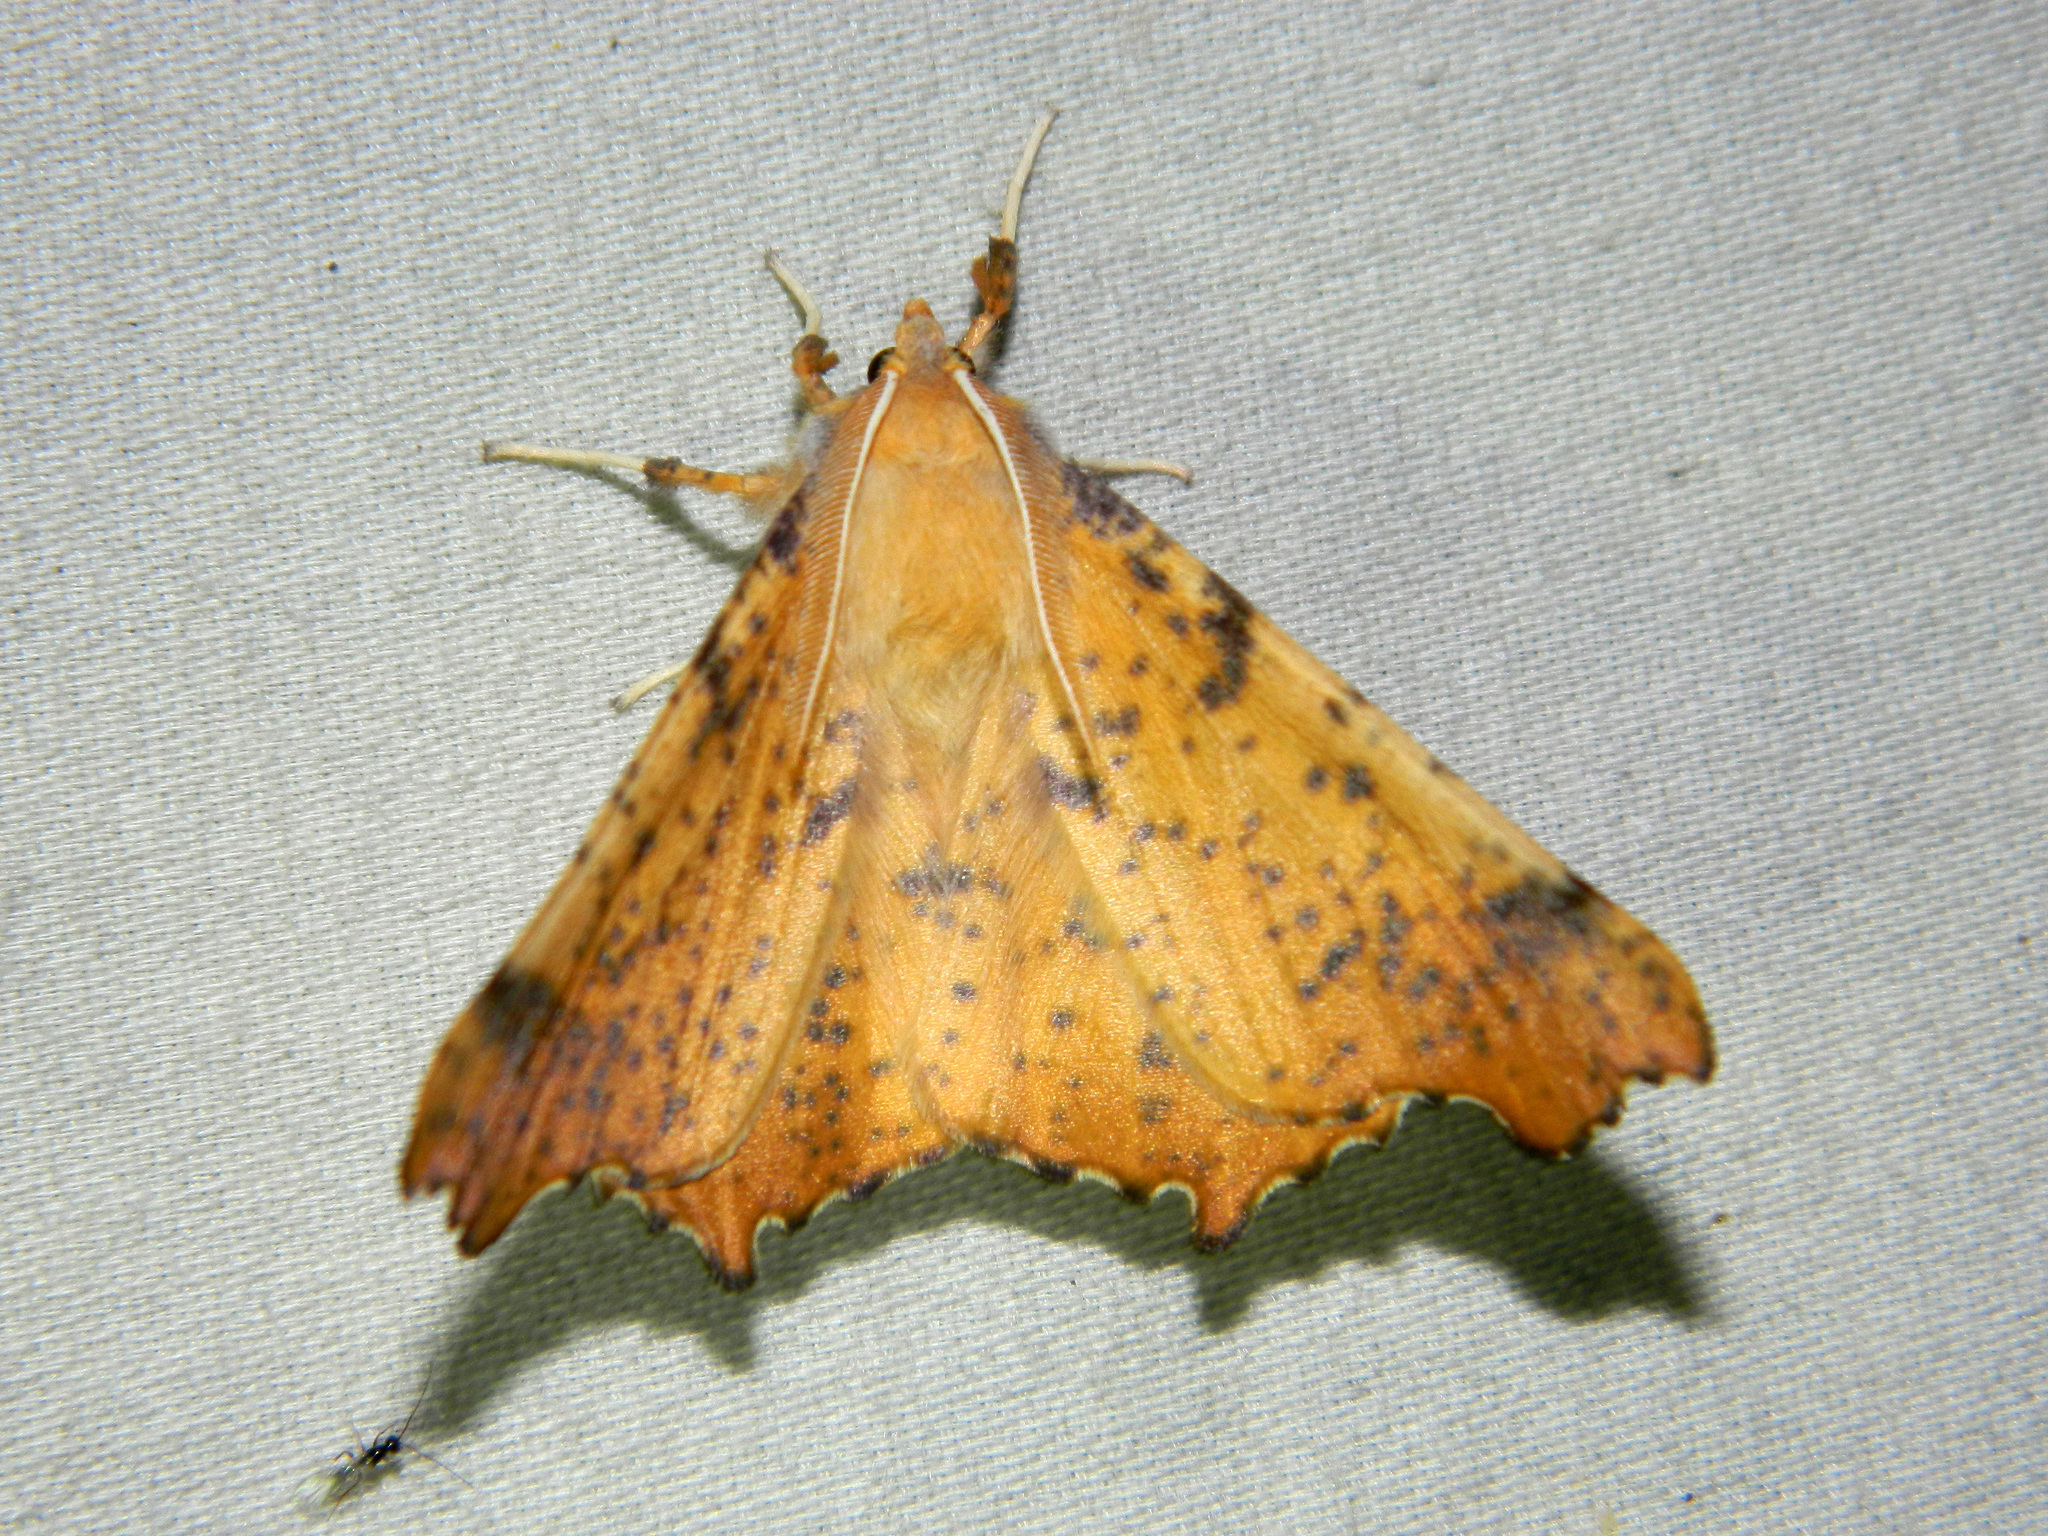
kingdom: Animalia
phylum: Arthropoda
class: Insecta
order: Lepidoptera
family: Geometridae
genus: Ennomos
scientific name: Ennomos magnaria
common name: Maple spanworm
